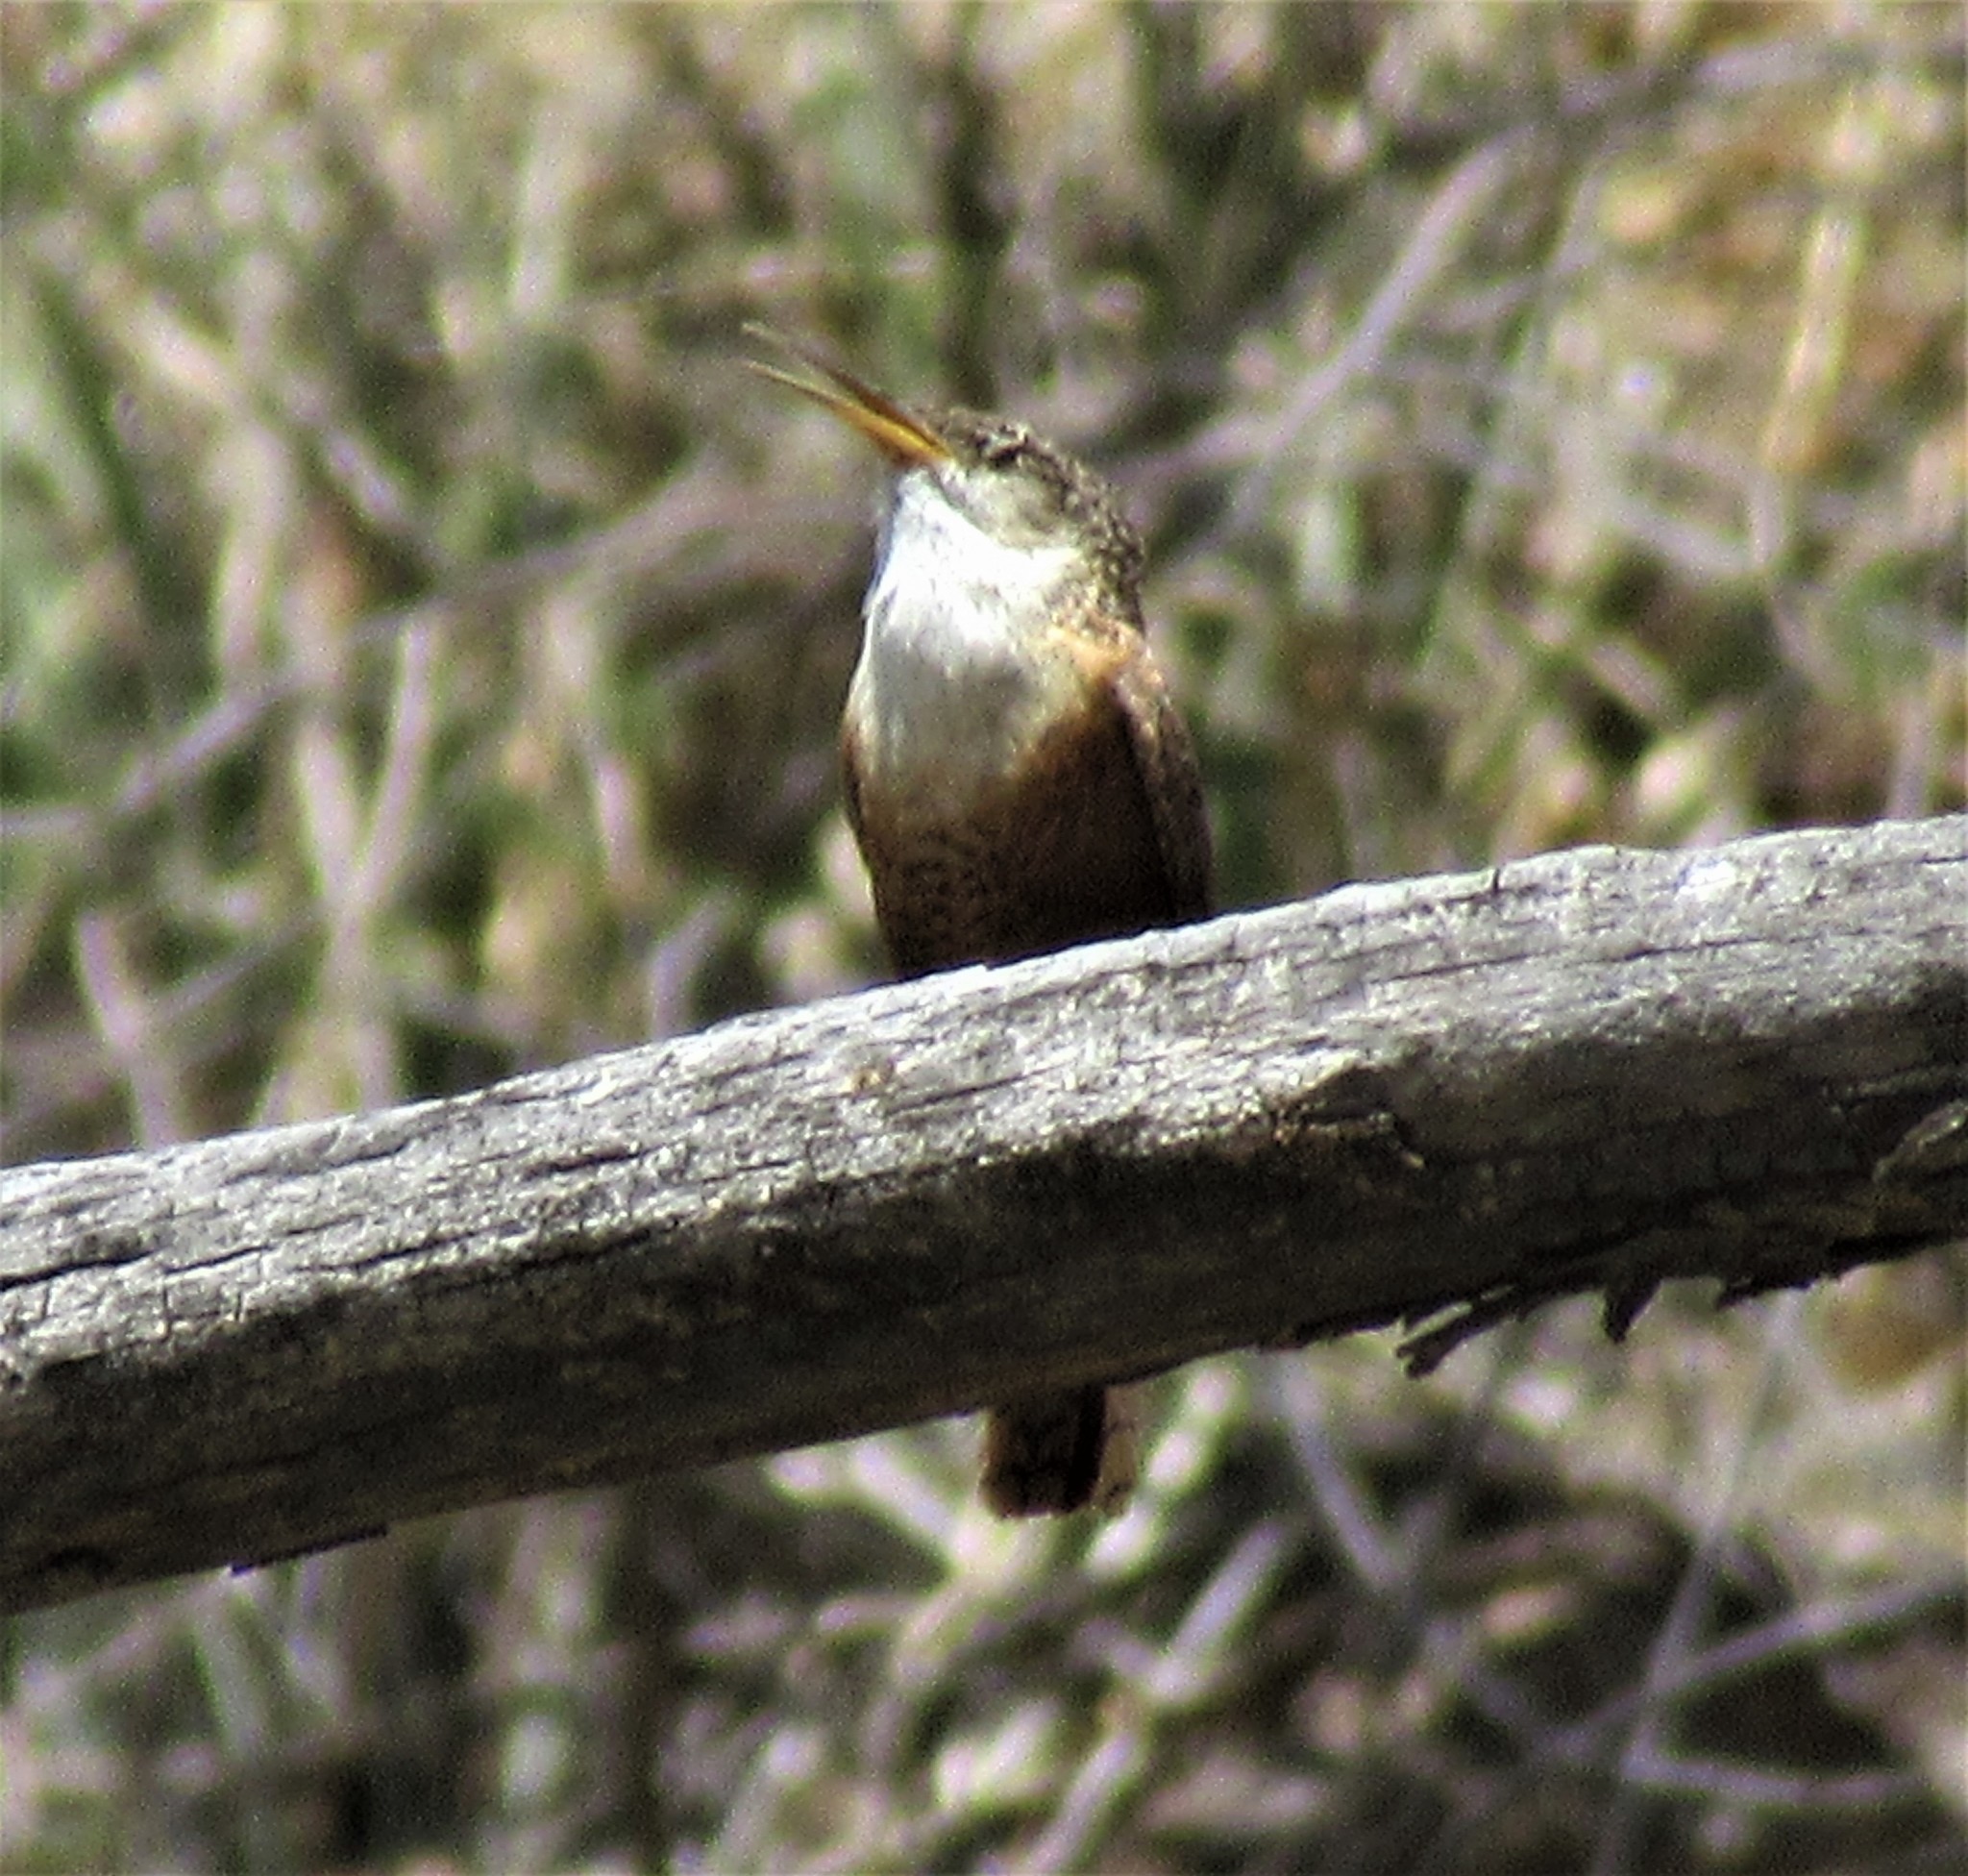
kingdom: Animalia
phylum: Chordata
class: Aves
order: Passeriformes
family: Troglodytidae
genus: Catherpes
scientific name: Catherpes mexicanus
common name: Canyon wren
